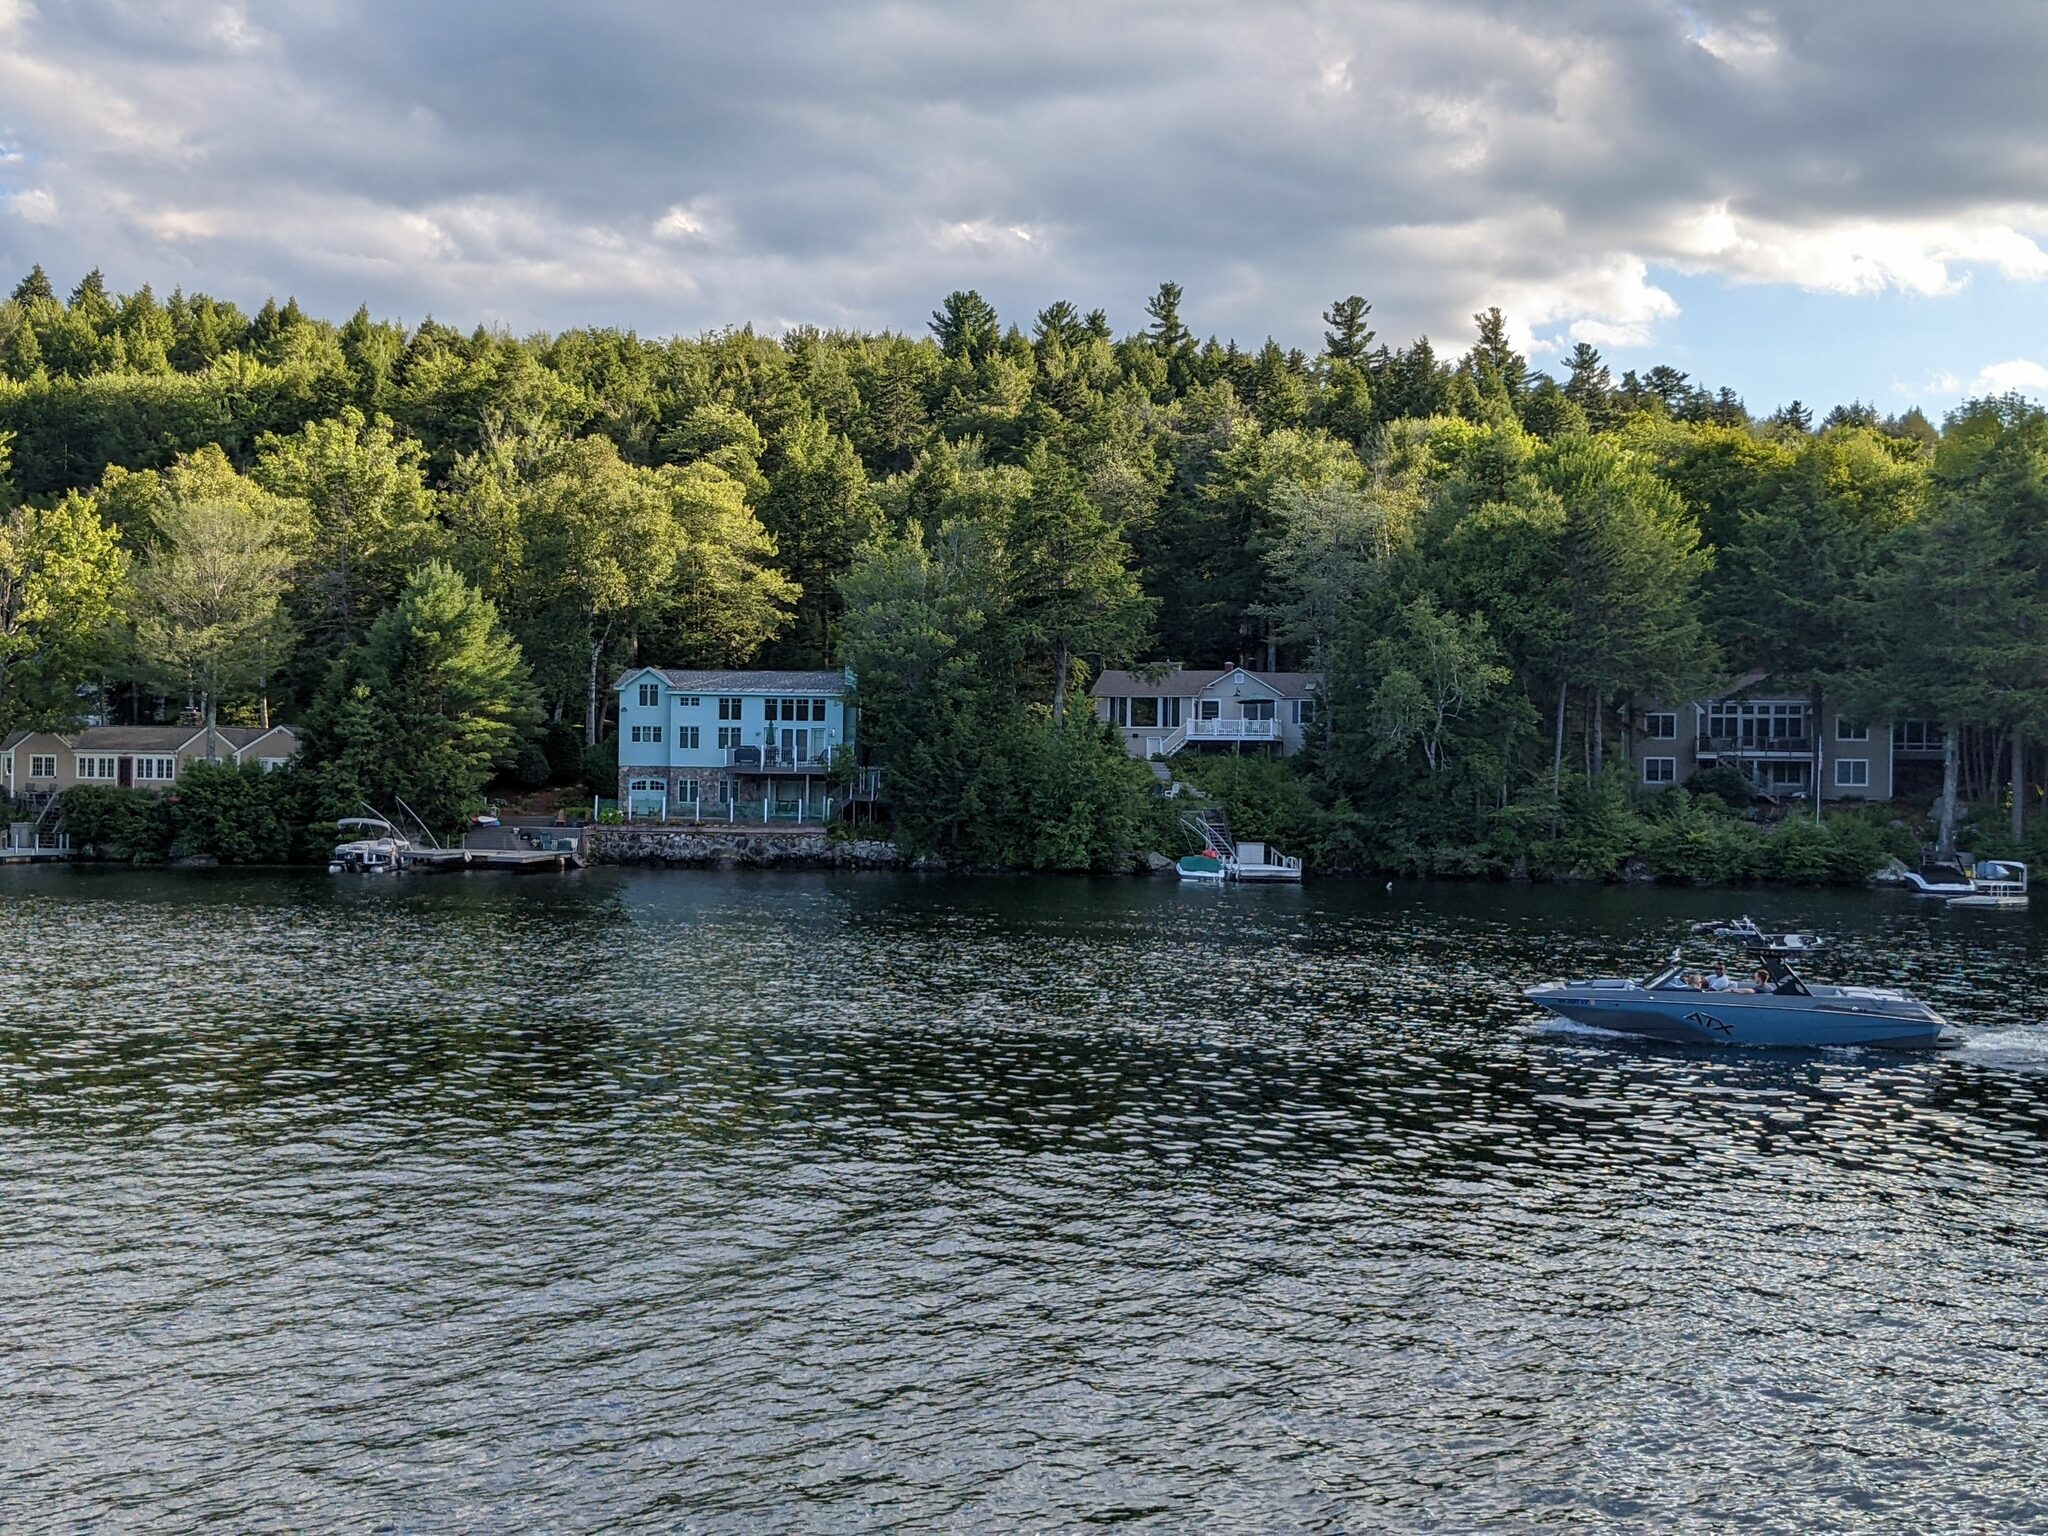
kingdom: Plantae
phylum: Tracheophyta
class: Pinopsida
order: Pinales
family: Pinaceae
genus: Pinus
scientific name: Pinus strobus
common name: Weymouth pine
